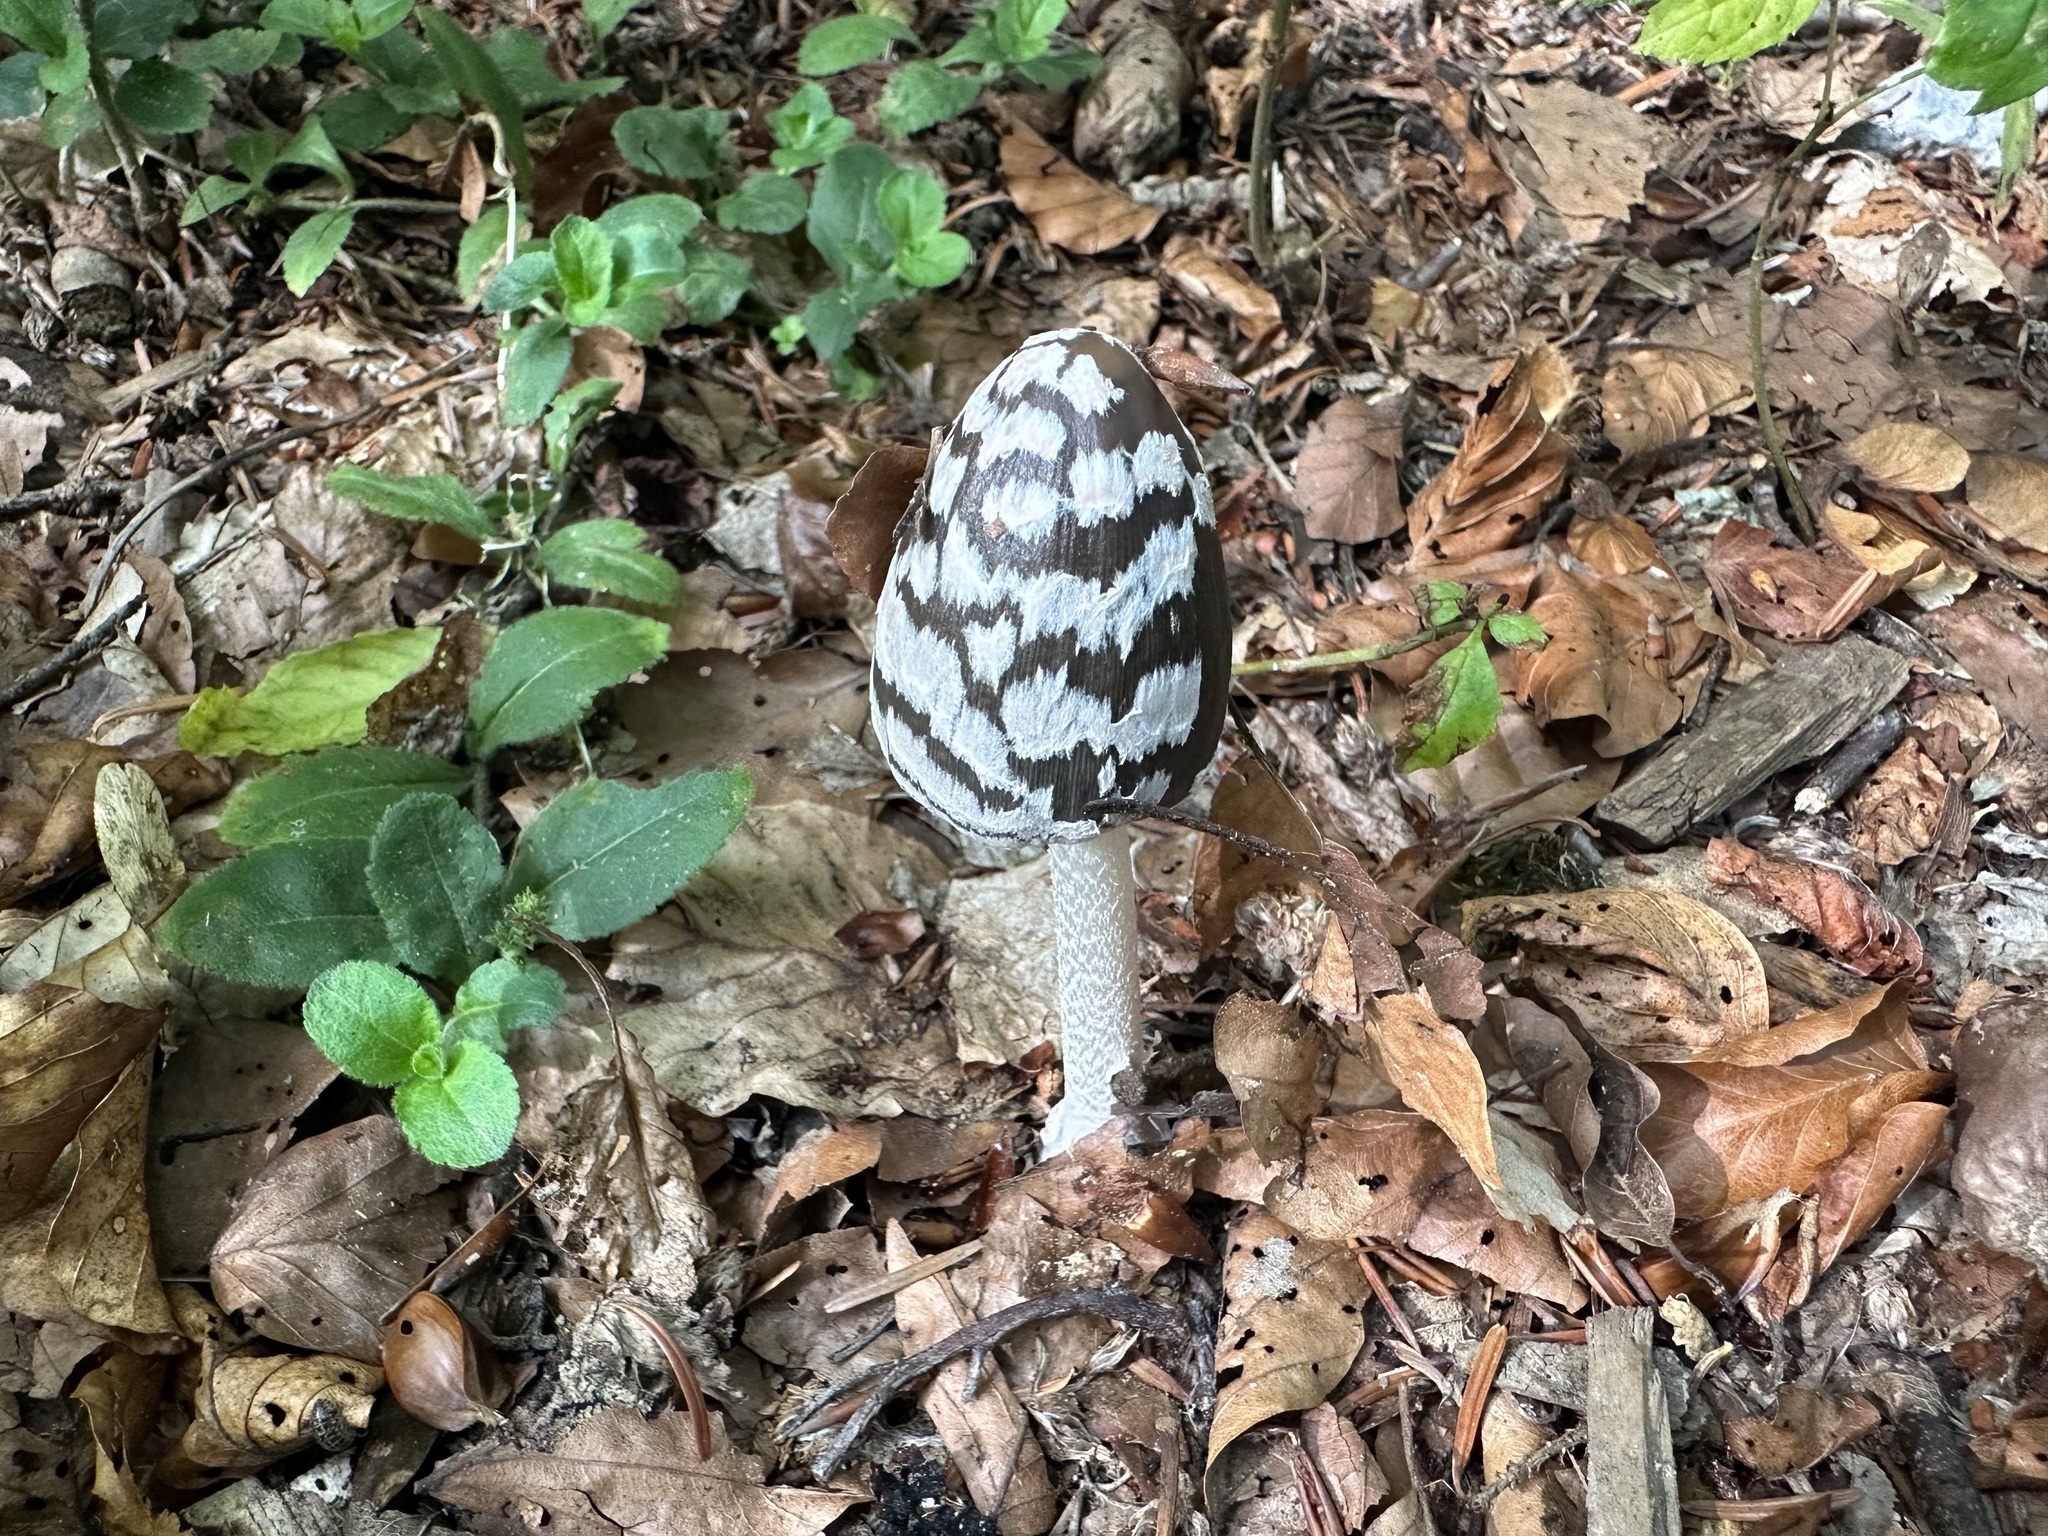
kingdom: Fungi
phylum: Basidiomycota
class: Agaricomycetes
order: Agaricales
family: Psathyrellaceae
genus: Coprinopsis
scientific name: Coprinopsis picacea
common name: Magpie inkcap
